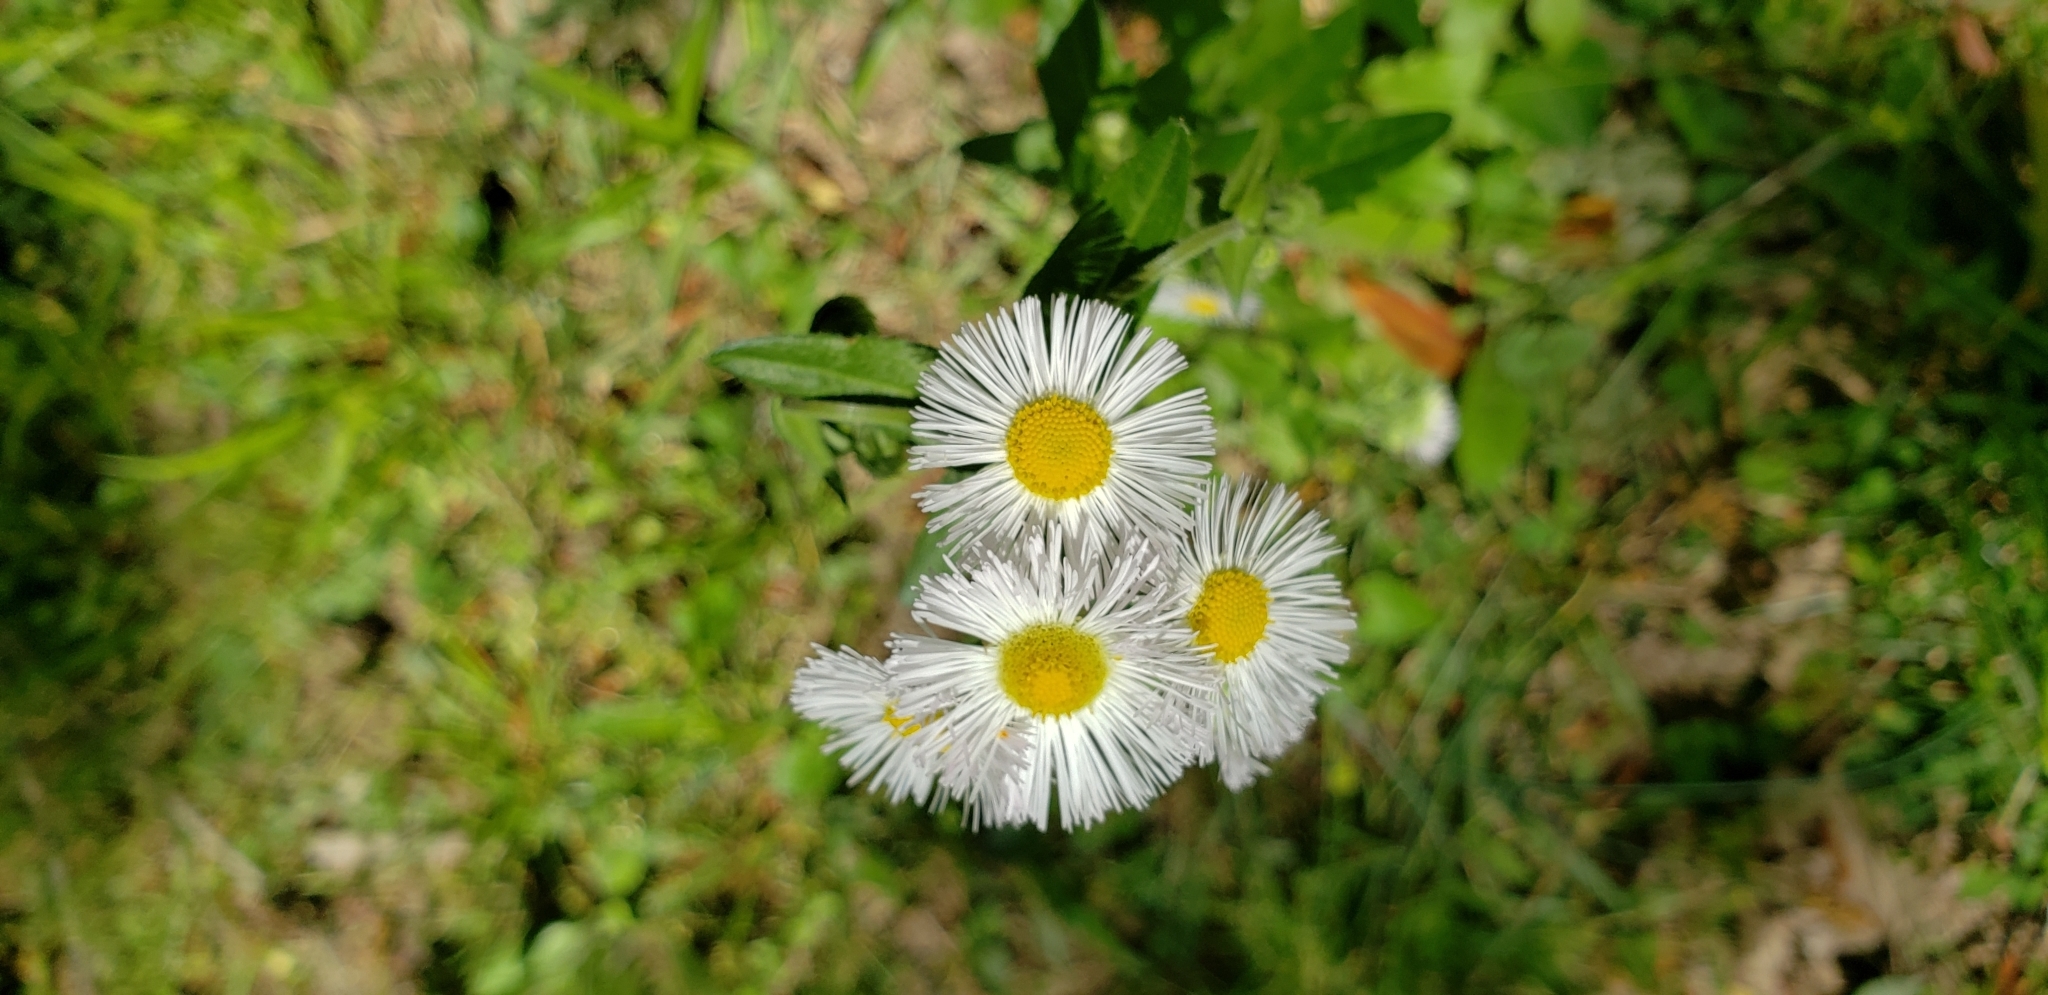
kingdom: Plantae
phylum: Tracheophyta
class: Magnoliopsida
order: Asterales
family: Asteraceae
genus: Erigeron
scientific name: Erigeron philadelphicus
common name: Robin's-plantain
